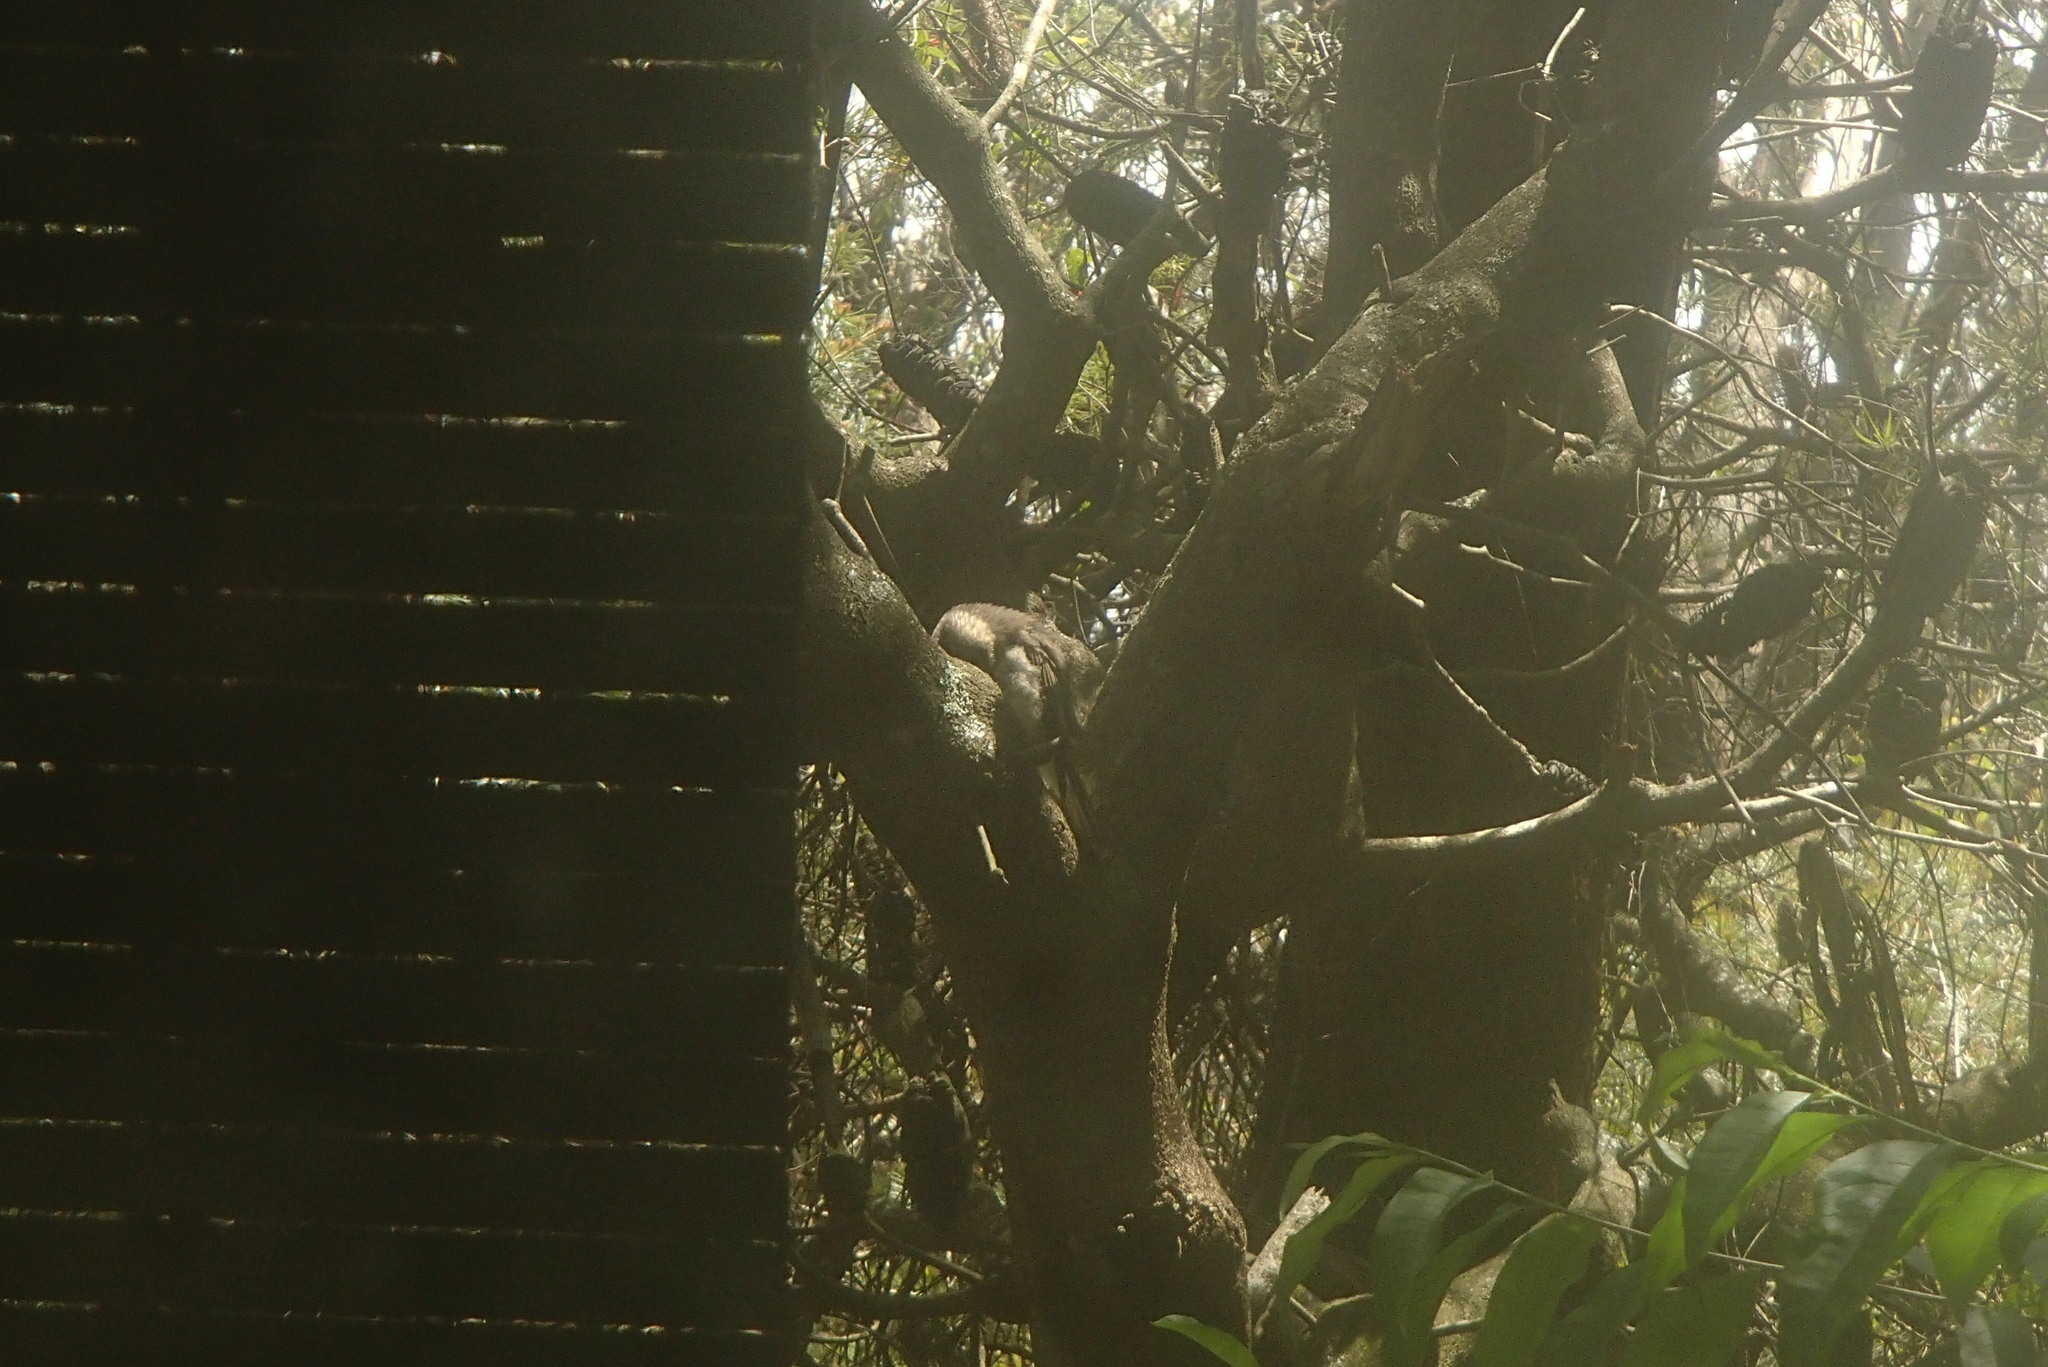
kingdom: Animalia
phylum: Chordata
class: Aves
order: Passeriformes
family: Cracticidae
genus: Cracticus
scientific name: Cracticus torquatus
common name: Grey butcherbird
